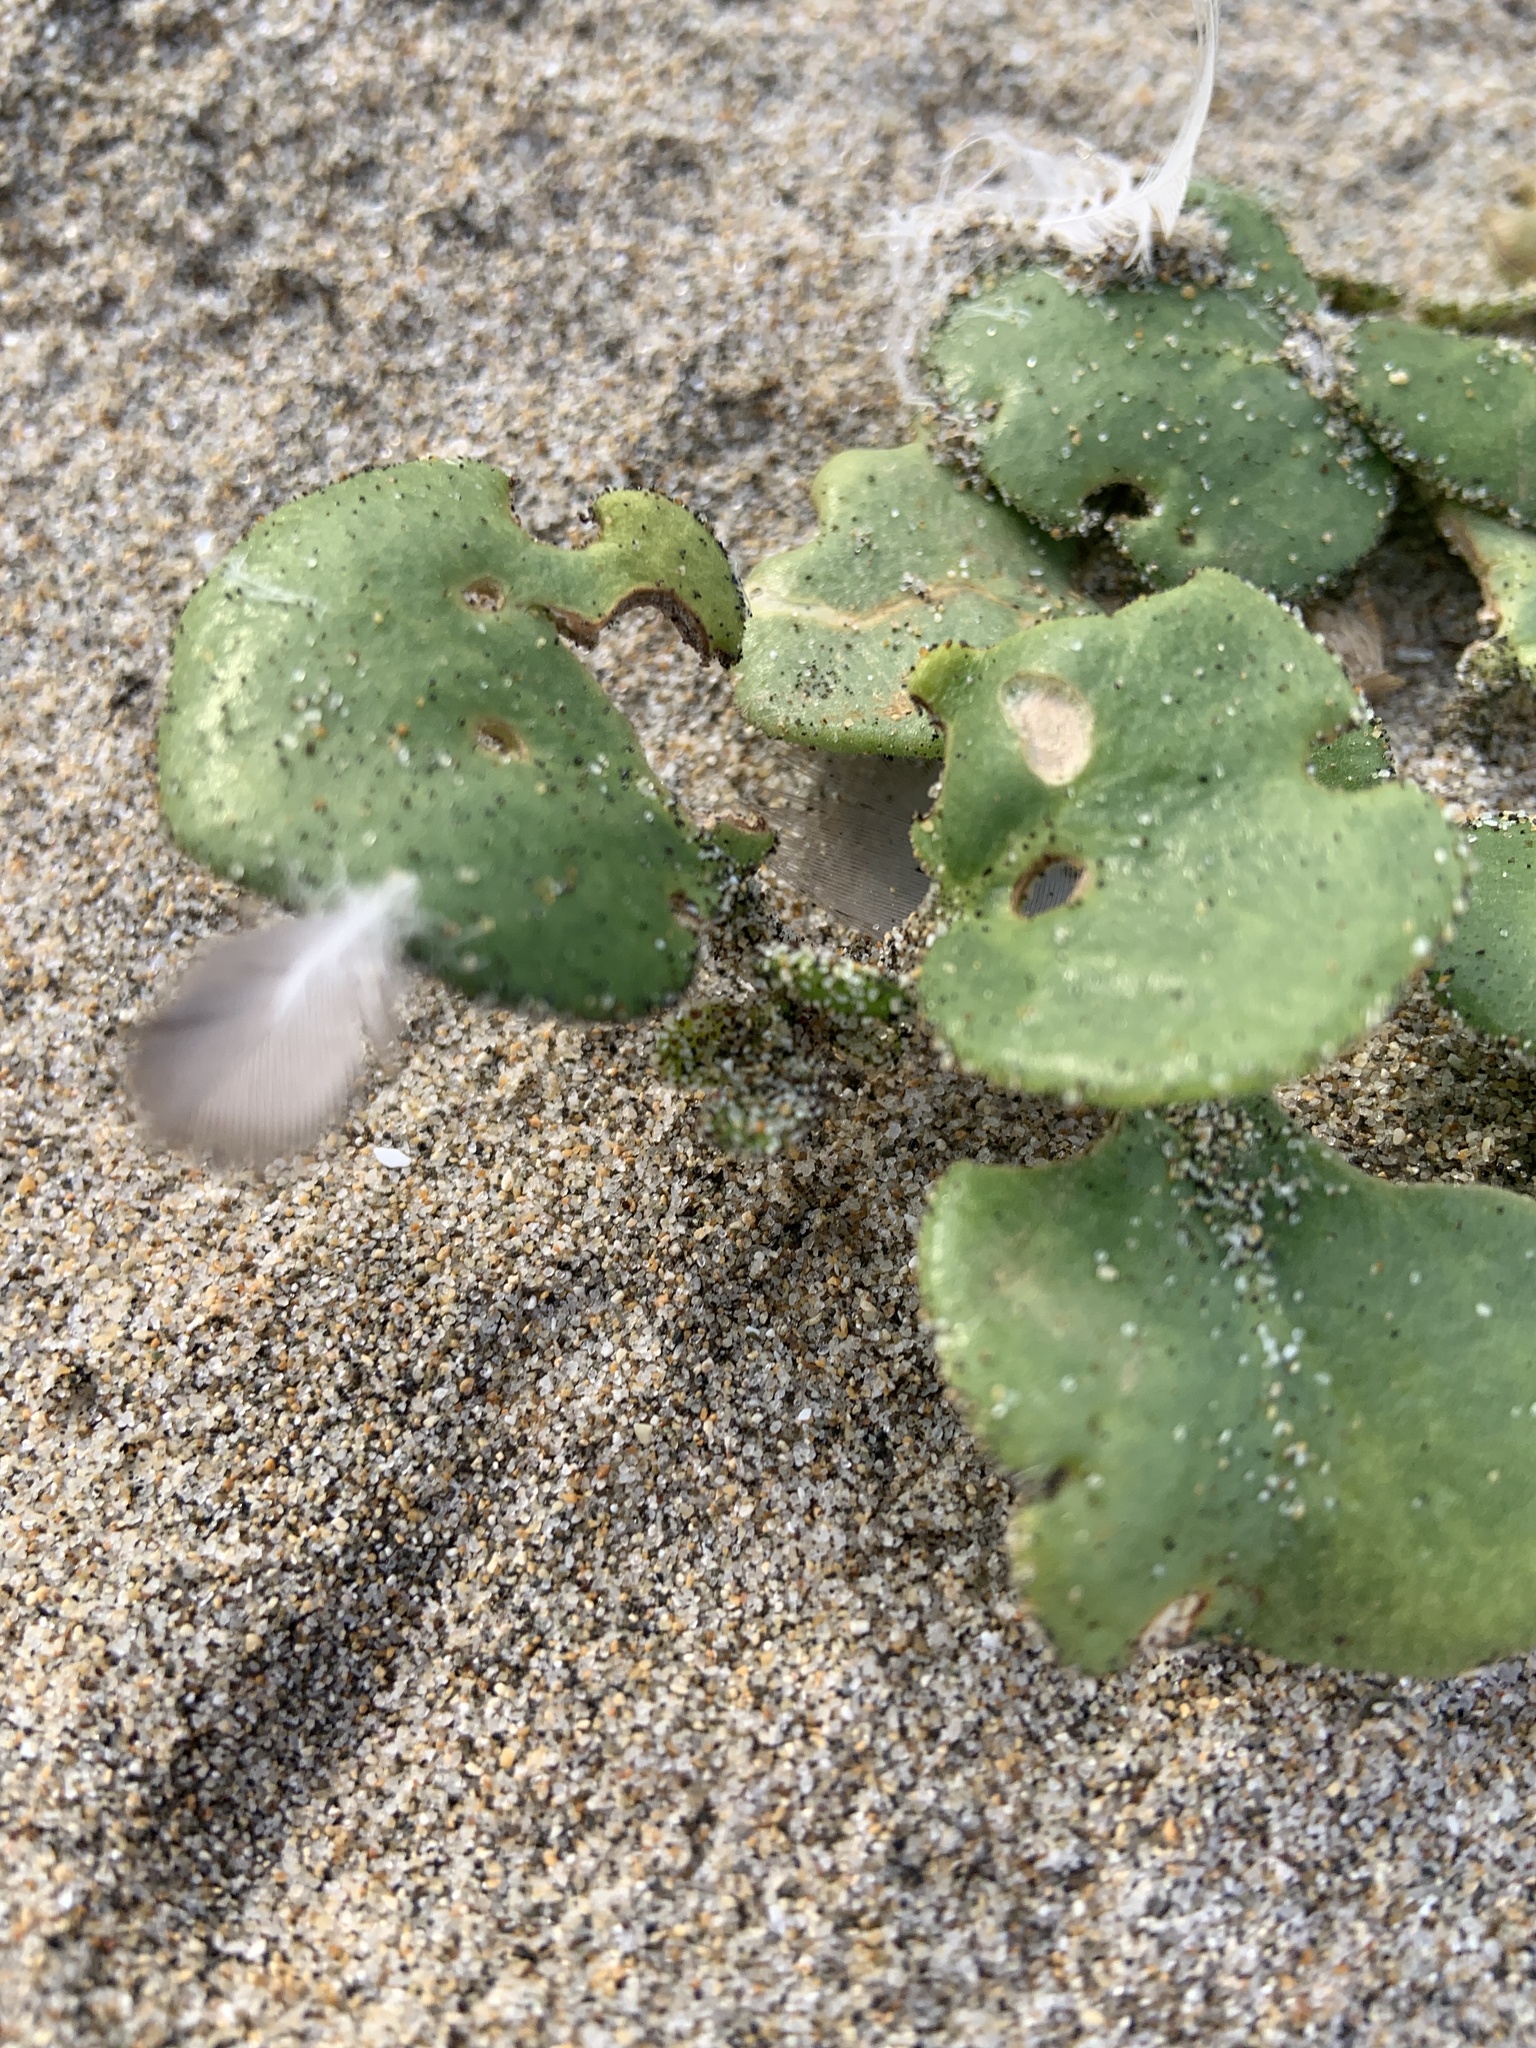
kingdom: Plantae
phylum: Tracheophyta
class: Magnoliopsida
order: Caryophyllales
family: Nyctaginaceae
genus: Abronia
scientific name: Abronia latifolia
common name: Yellow sand-verbena
